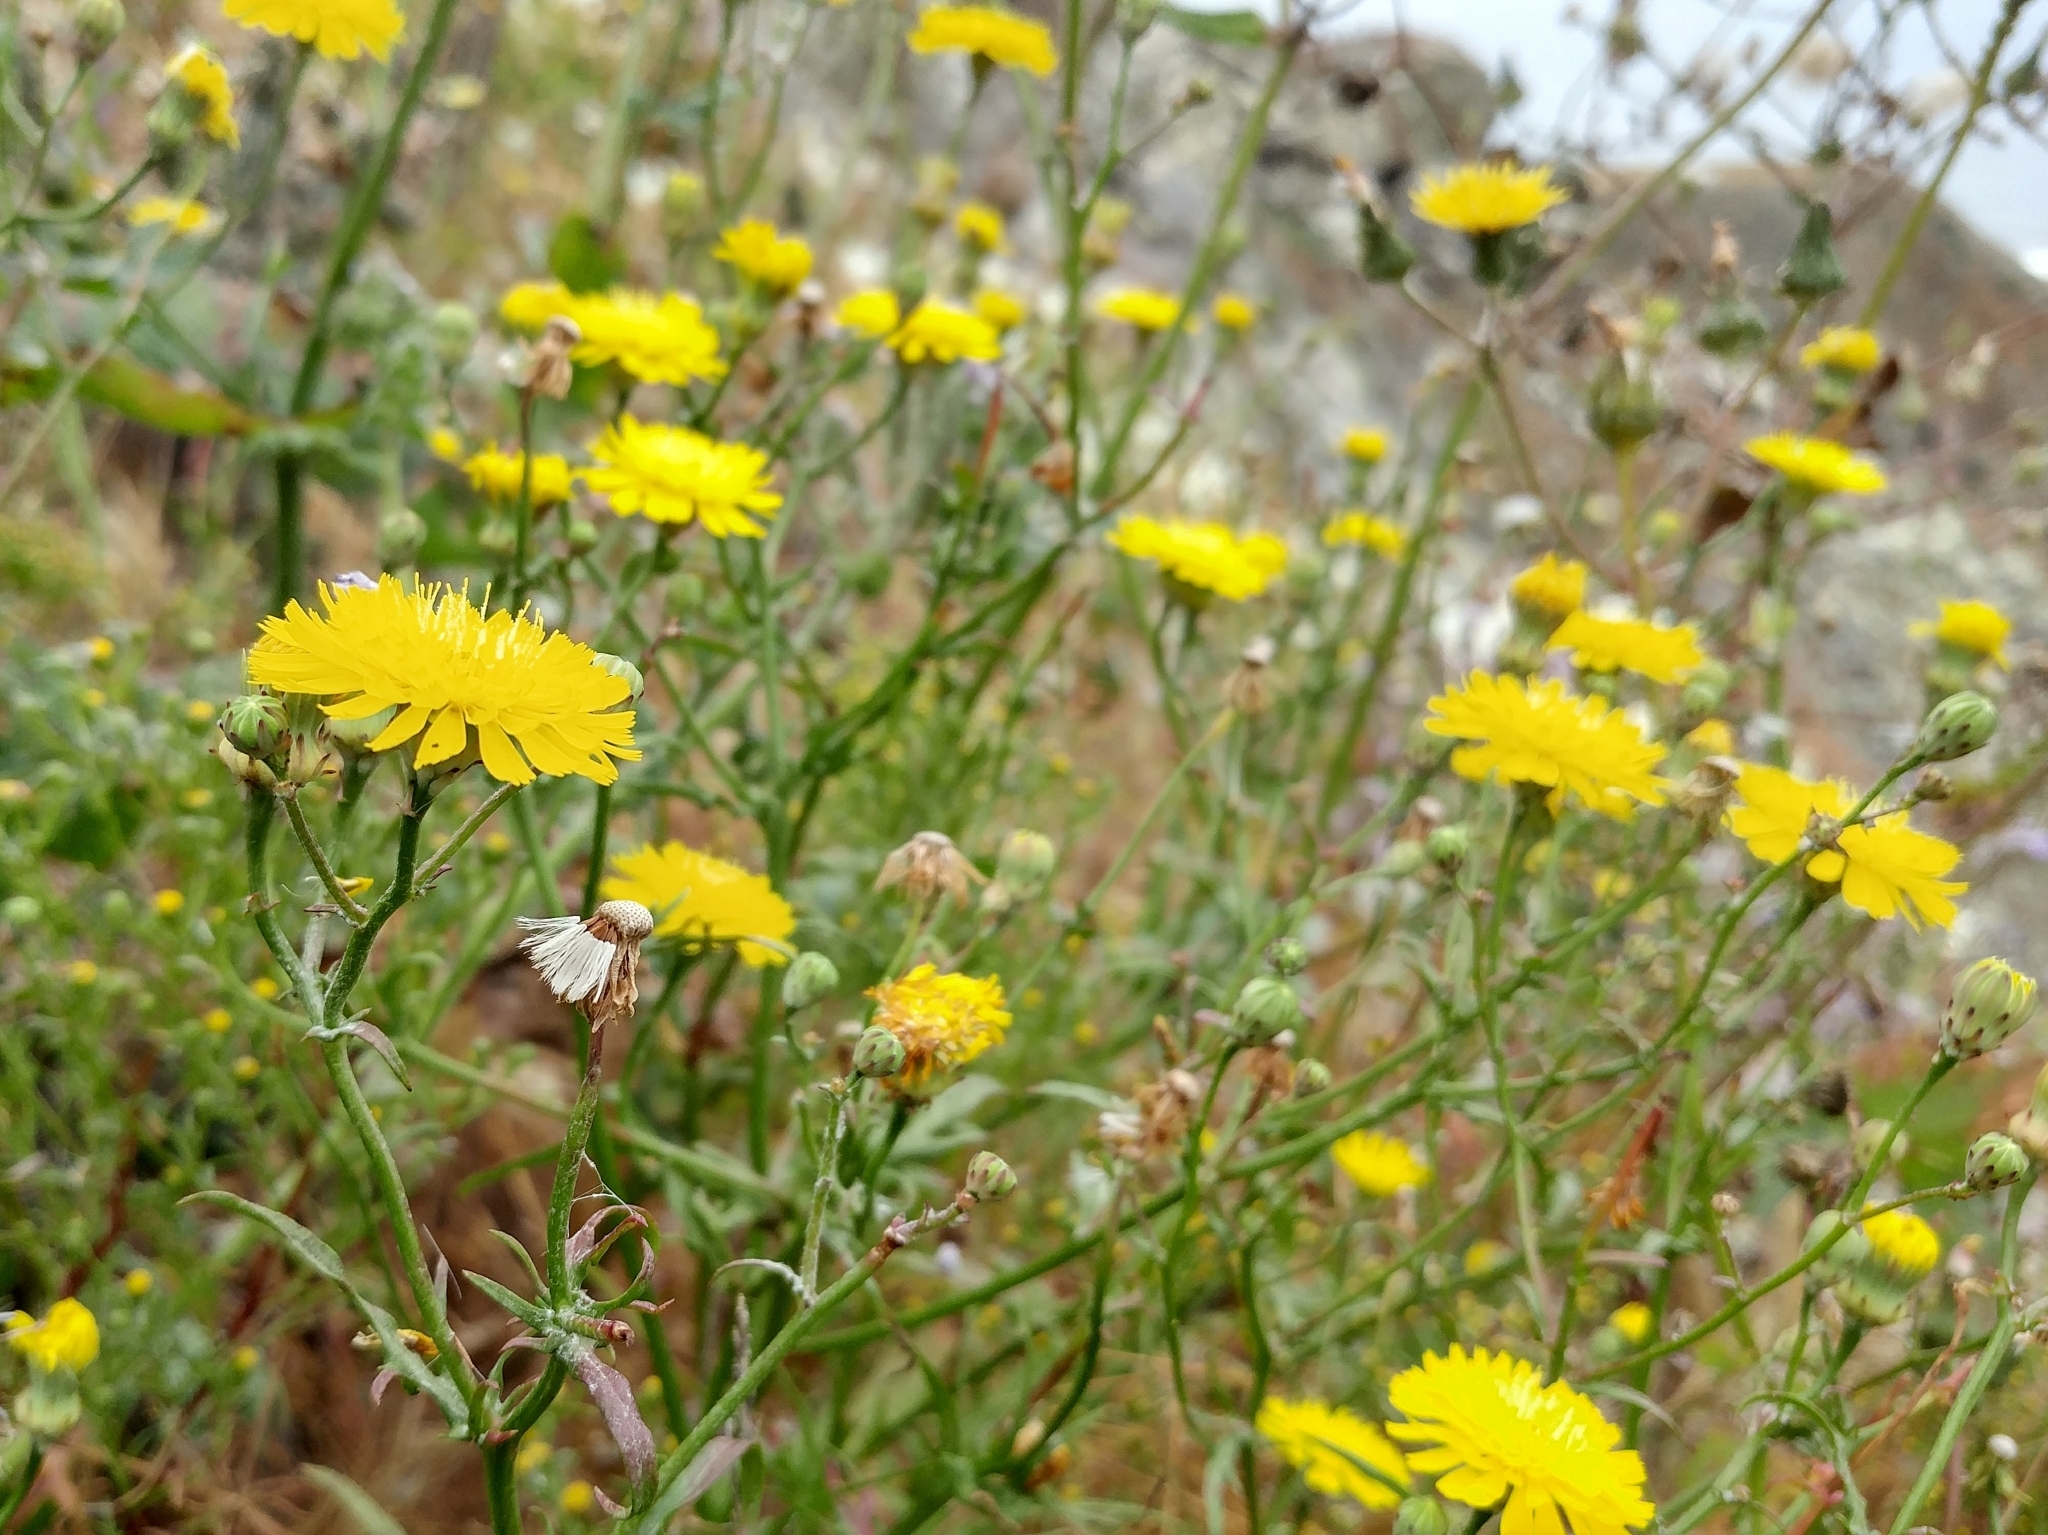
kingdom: Plantae
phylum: Tracheophyta
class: Magnoliopsida
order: Asterales
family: Asteraceae
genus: Malacothrix
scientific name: Malacothrix foliosa
